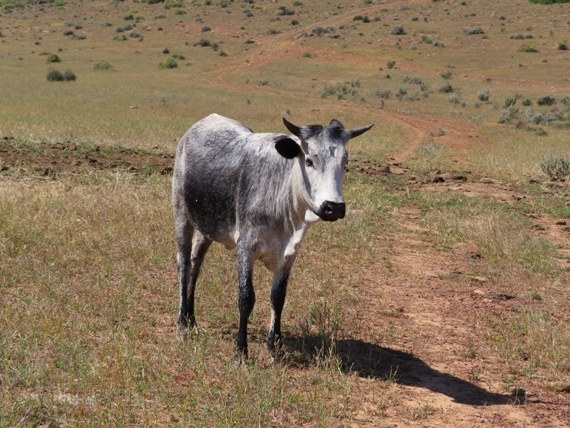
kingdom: Animalia
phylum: Chordata
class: Mammalia
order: Artiodactyla
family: Bovidae
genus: Bos
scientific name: Bos taurus
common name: Domesticated cattle
